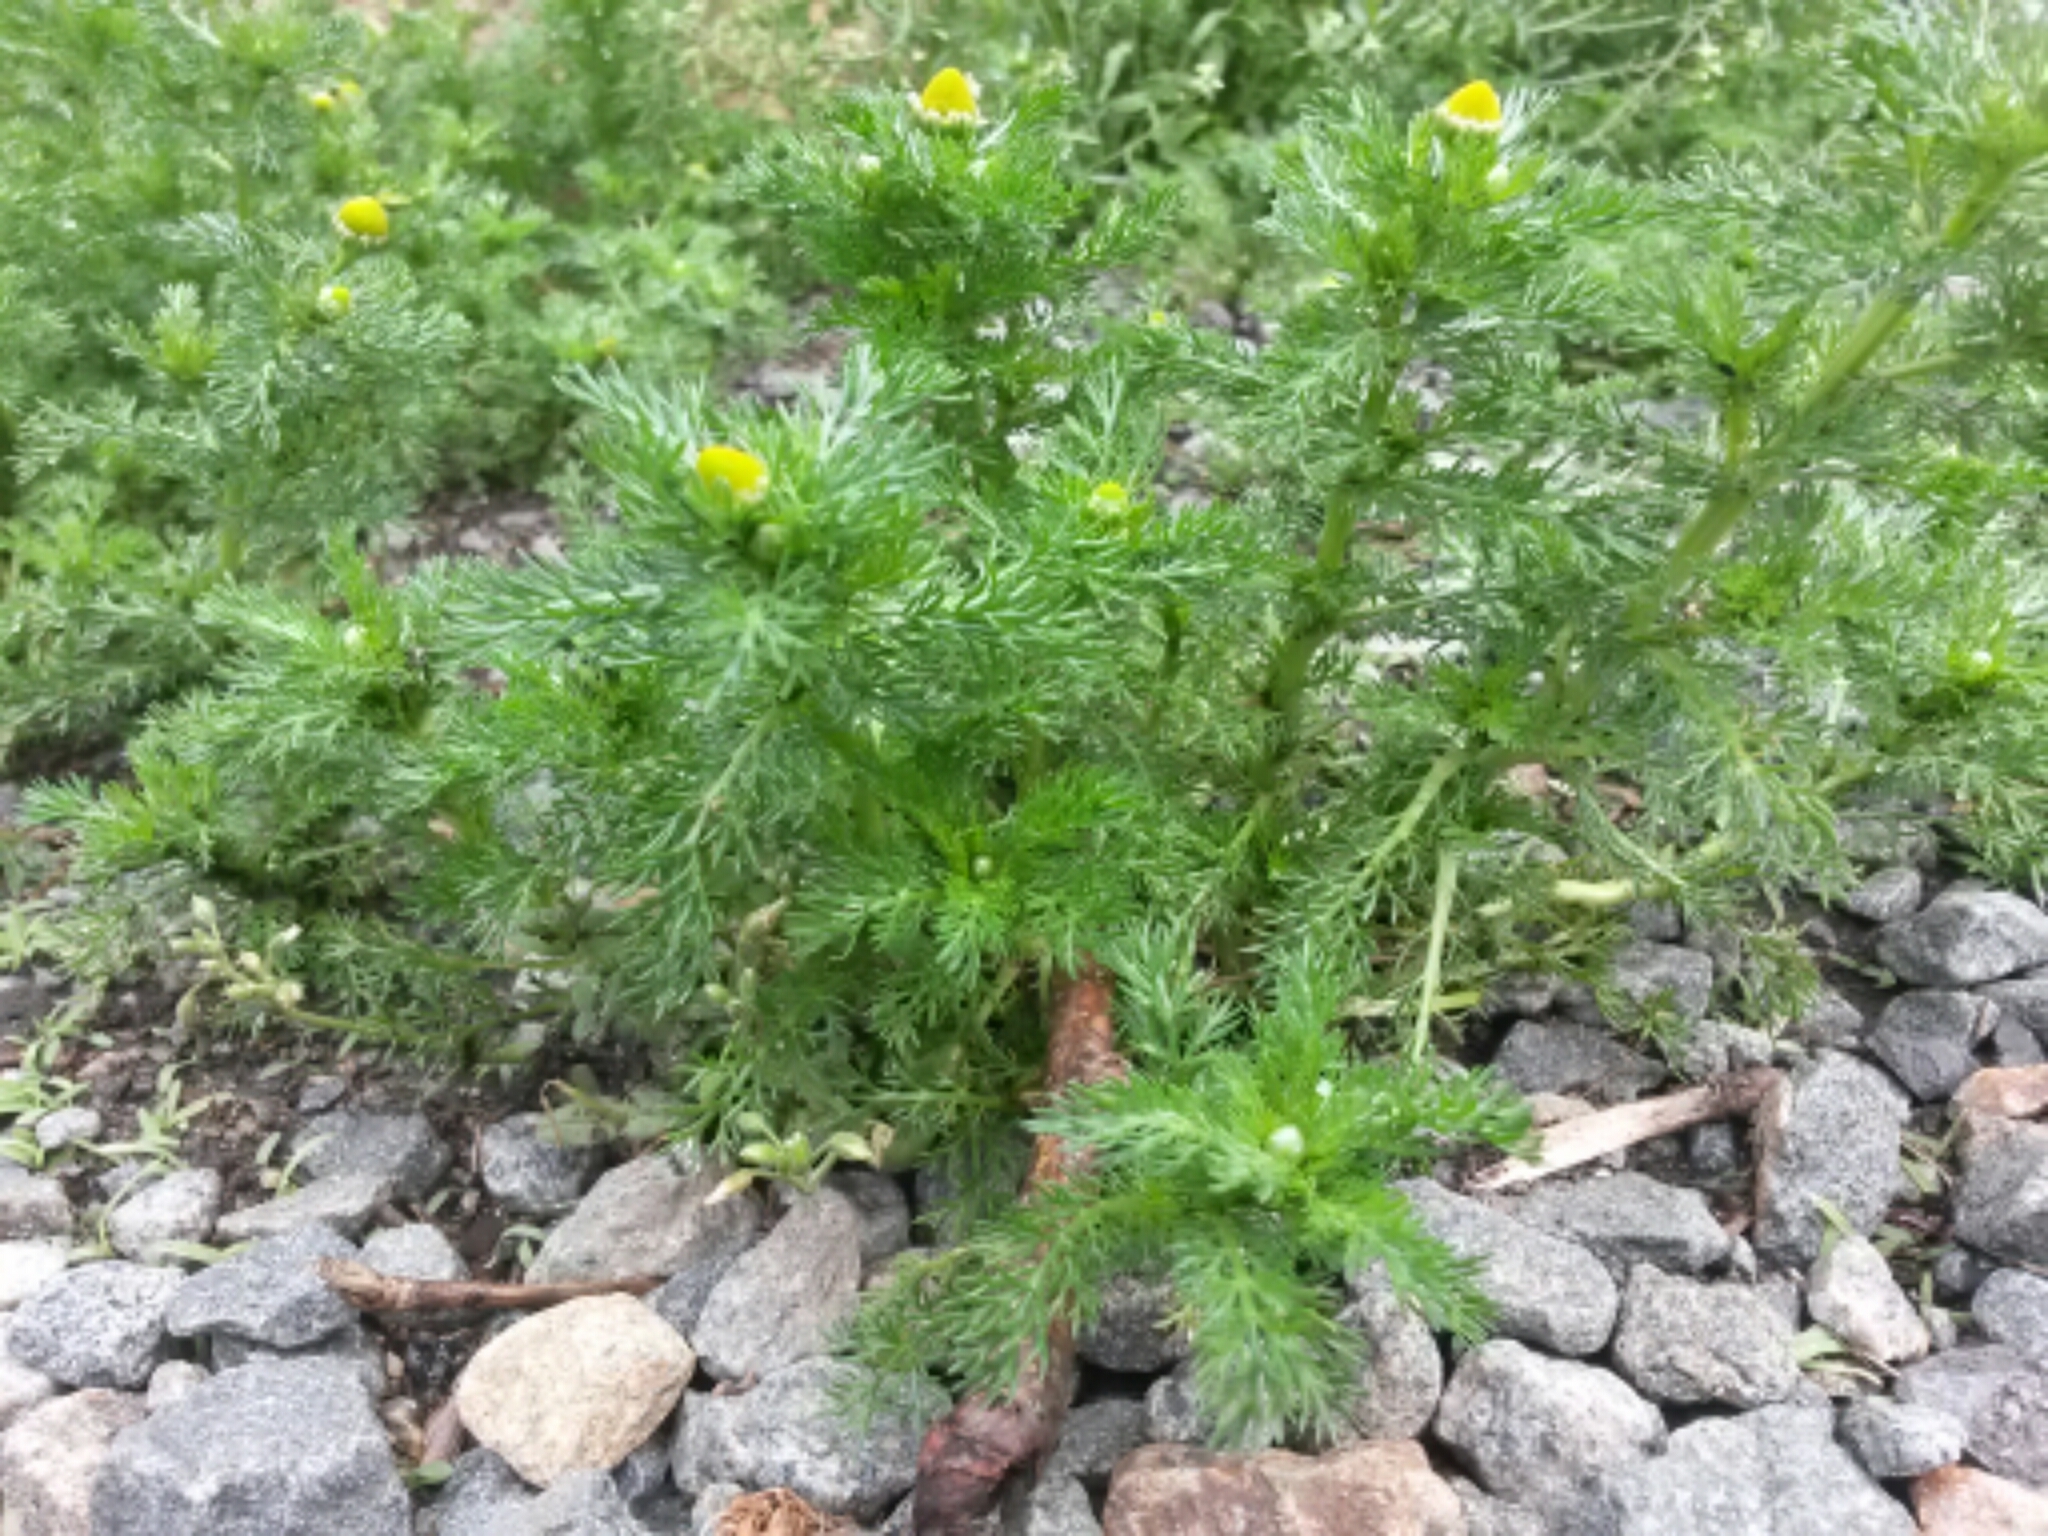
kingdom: Plantae
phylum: Tracheophyta
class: Magnoliopsida
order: Asterales
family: Asteraceae
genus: Matricaria
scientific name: Matricaria discoidea
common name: Disc mayweed
